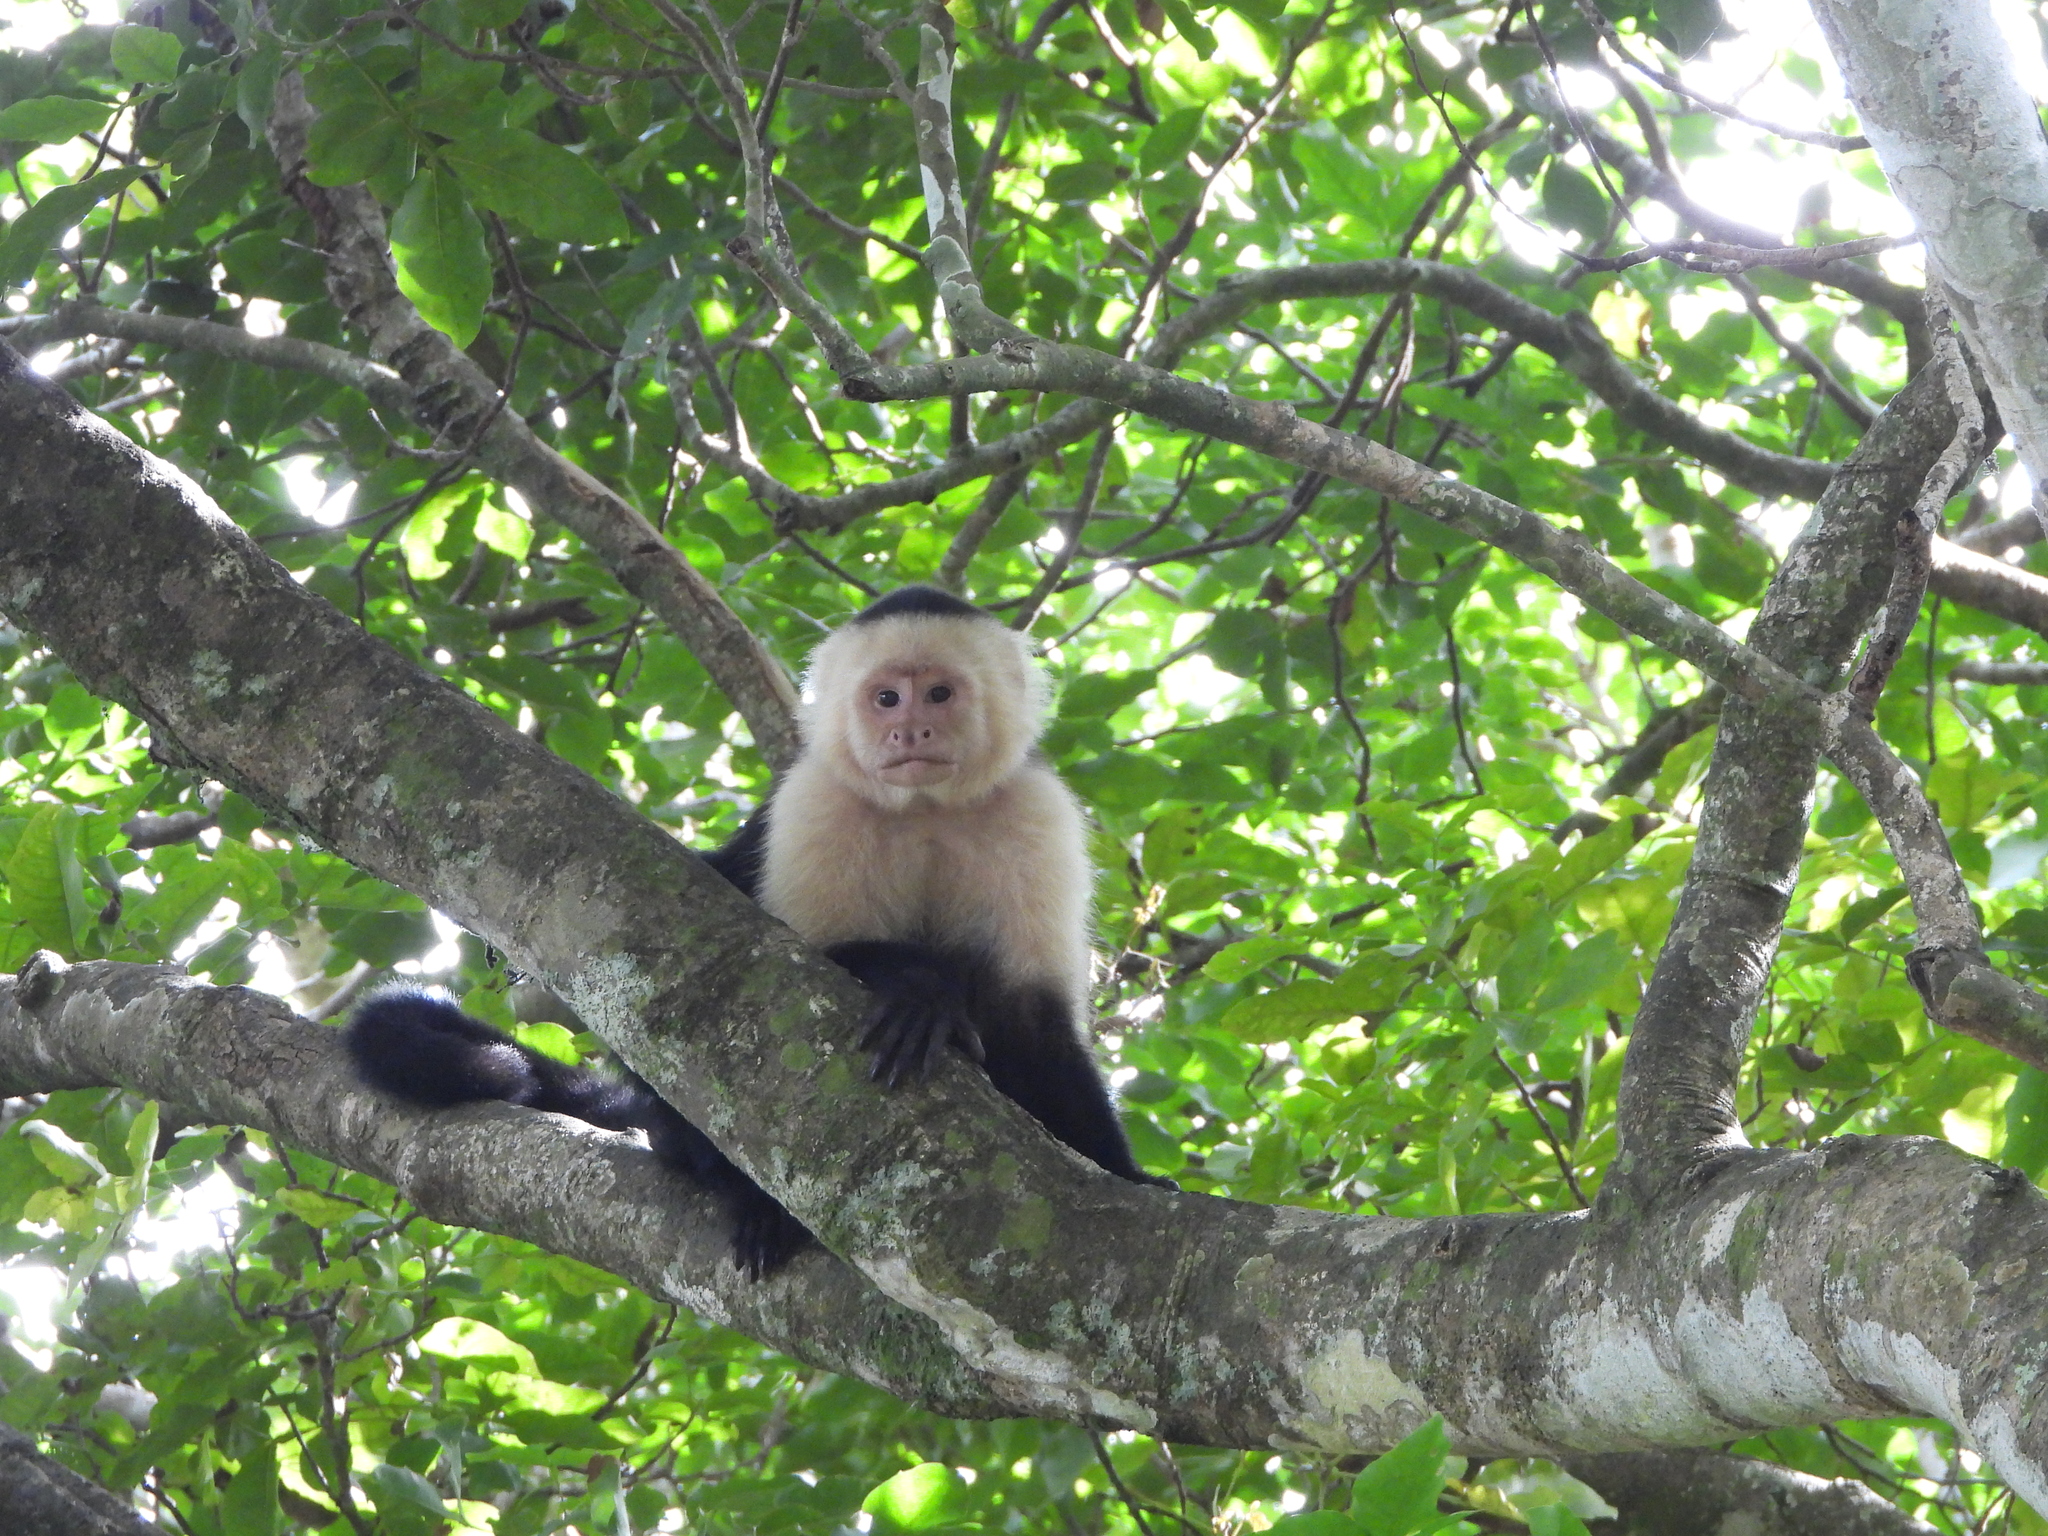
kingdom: Animalia
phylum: Chordata
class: Mammalia
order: Primates
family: Cebidae
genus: Cebus
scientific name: Cebus imitator
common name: Panamanian white-faced capuchin
